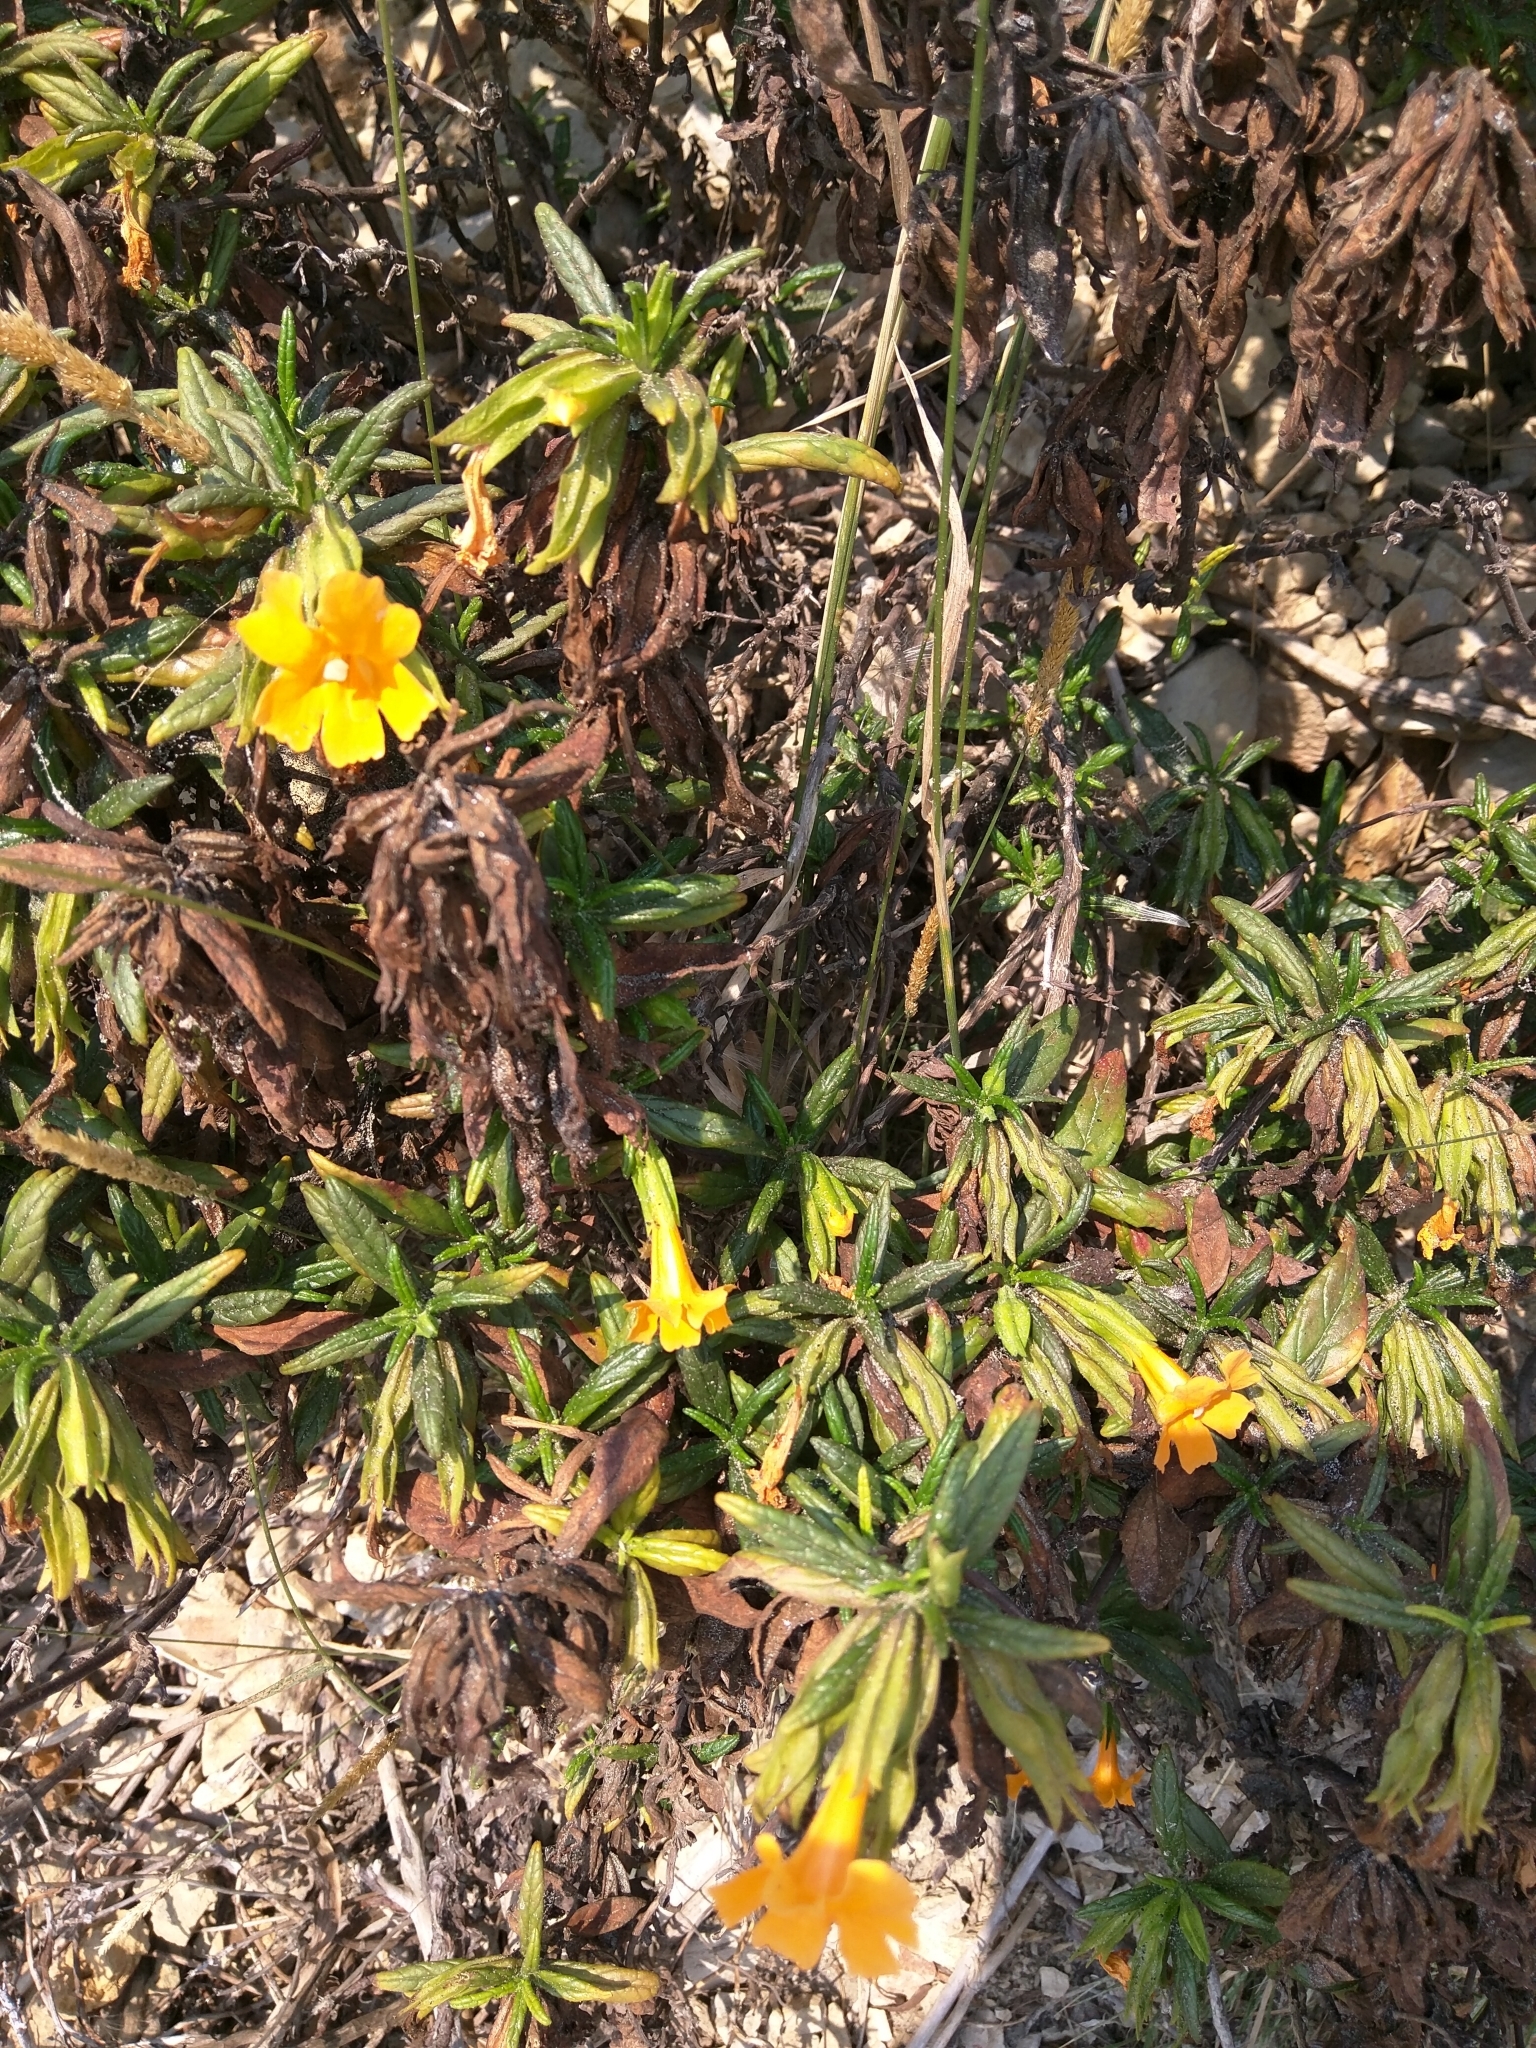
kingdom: Plantae
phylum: Tracheophyta
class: Magnoliopsida
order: Lamiales
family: Phrymaceae
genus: Diplacus
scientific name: Diplacus aurantiacus
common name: Bush monkey-flower
